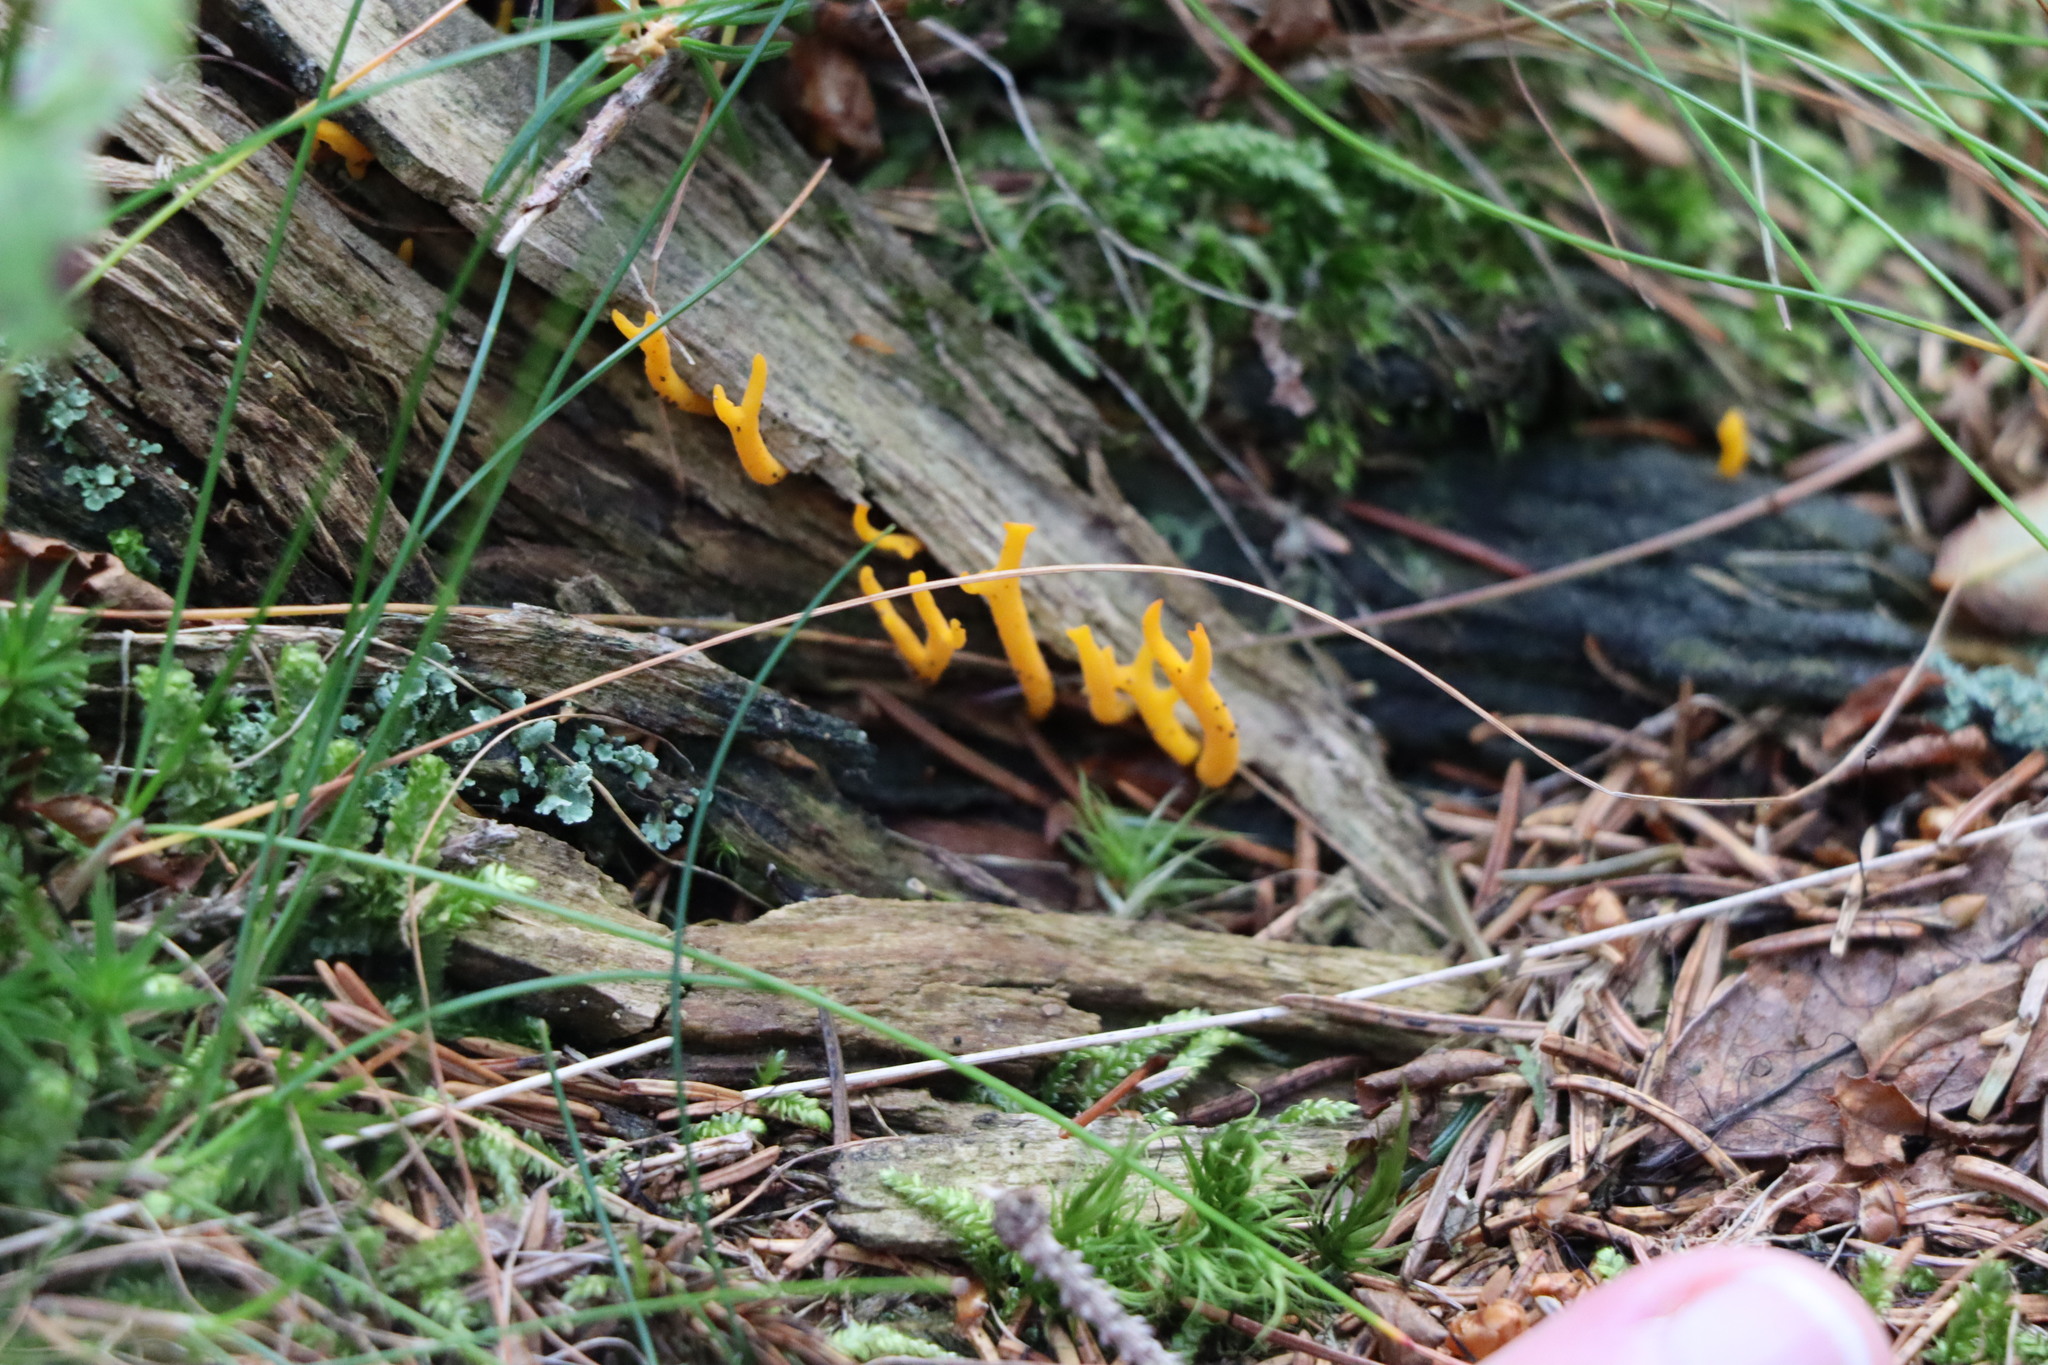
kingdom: Fungi
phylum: Basidiomycota
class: Dacrymycetes
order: Dacrymycetales
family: Dacrymycetaceae
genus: Calocera
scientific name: Calocera viscosa
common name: Yellow stagshorn
